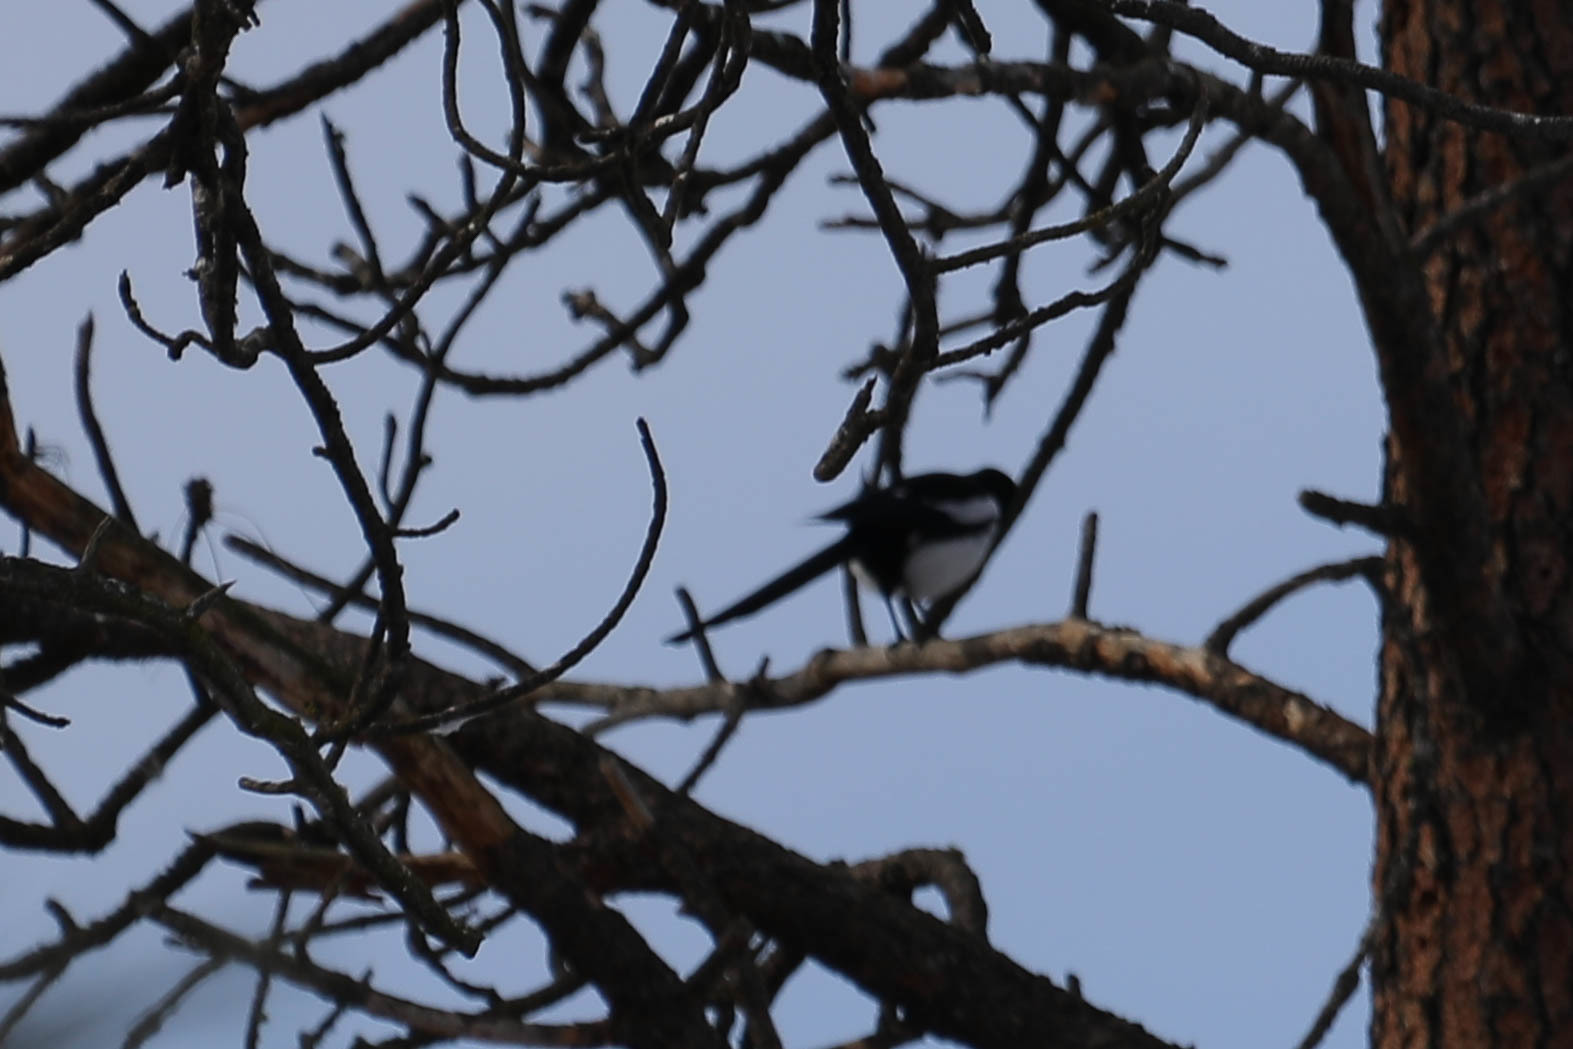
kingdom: Animalia
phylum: Chordata
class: Aves
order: Passeriformes
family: Corvidae
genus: Pica
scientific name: Pica hudsonia
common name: Black-billed magpie
